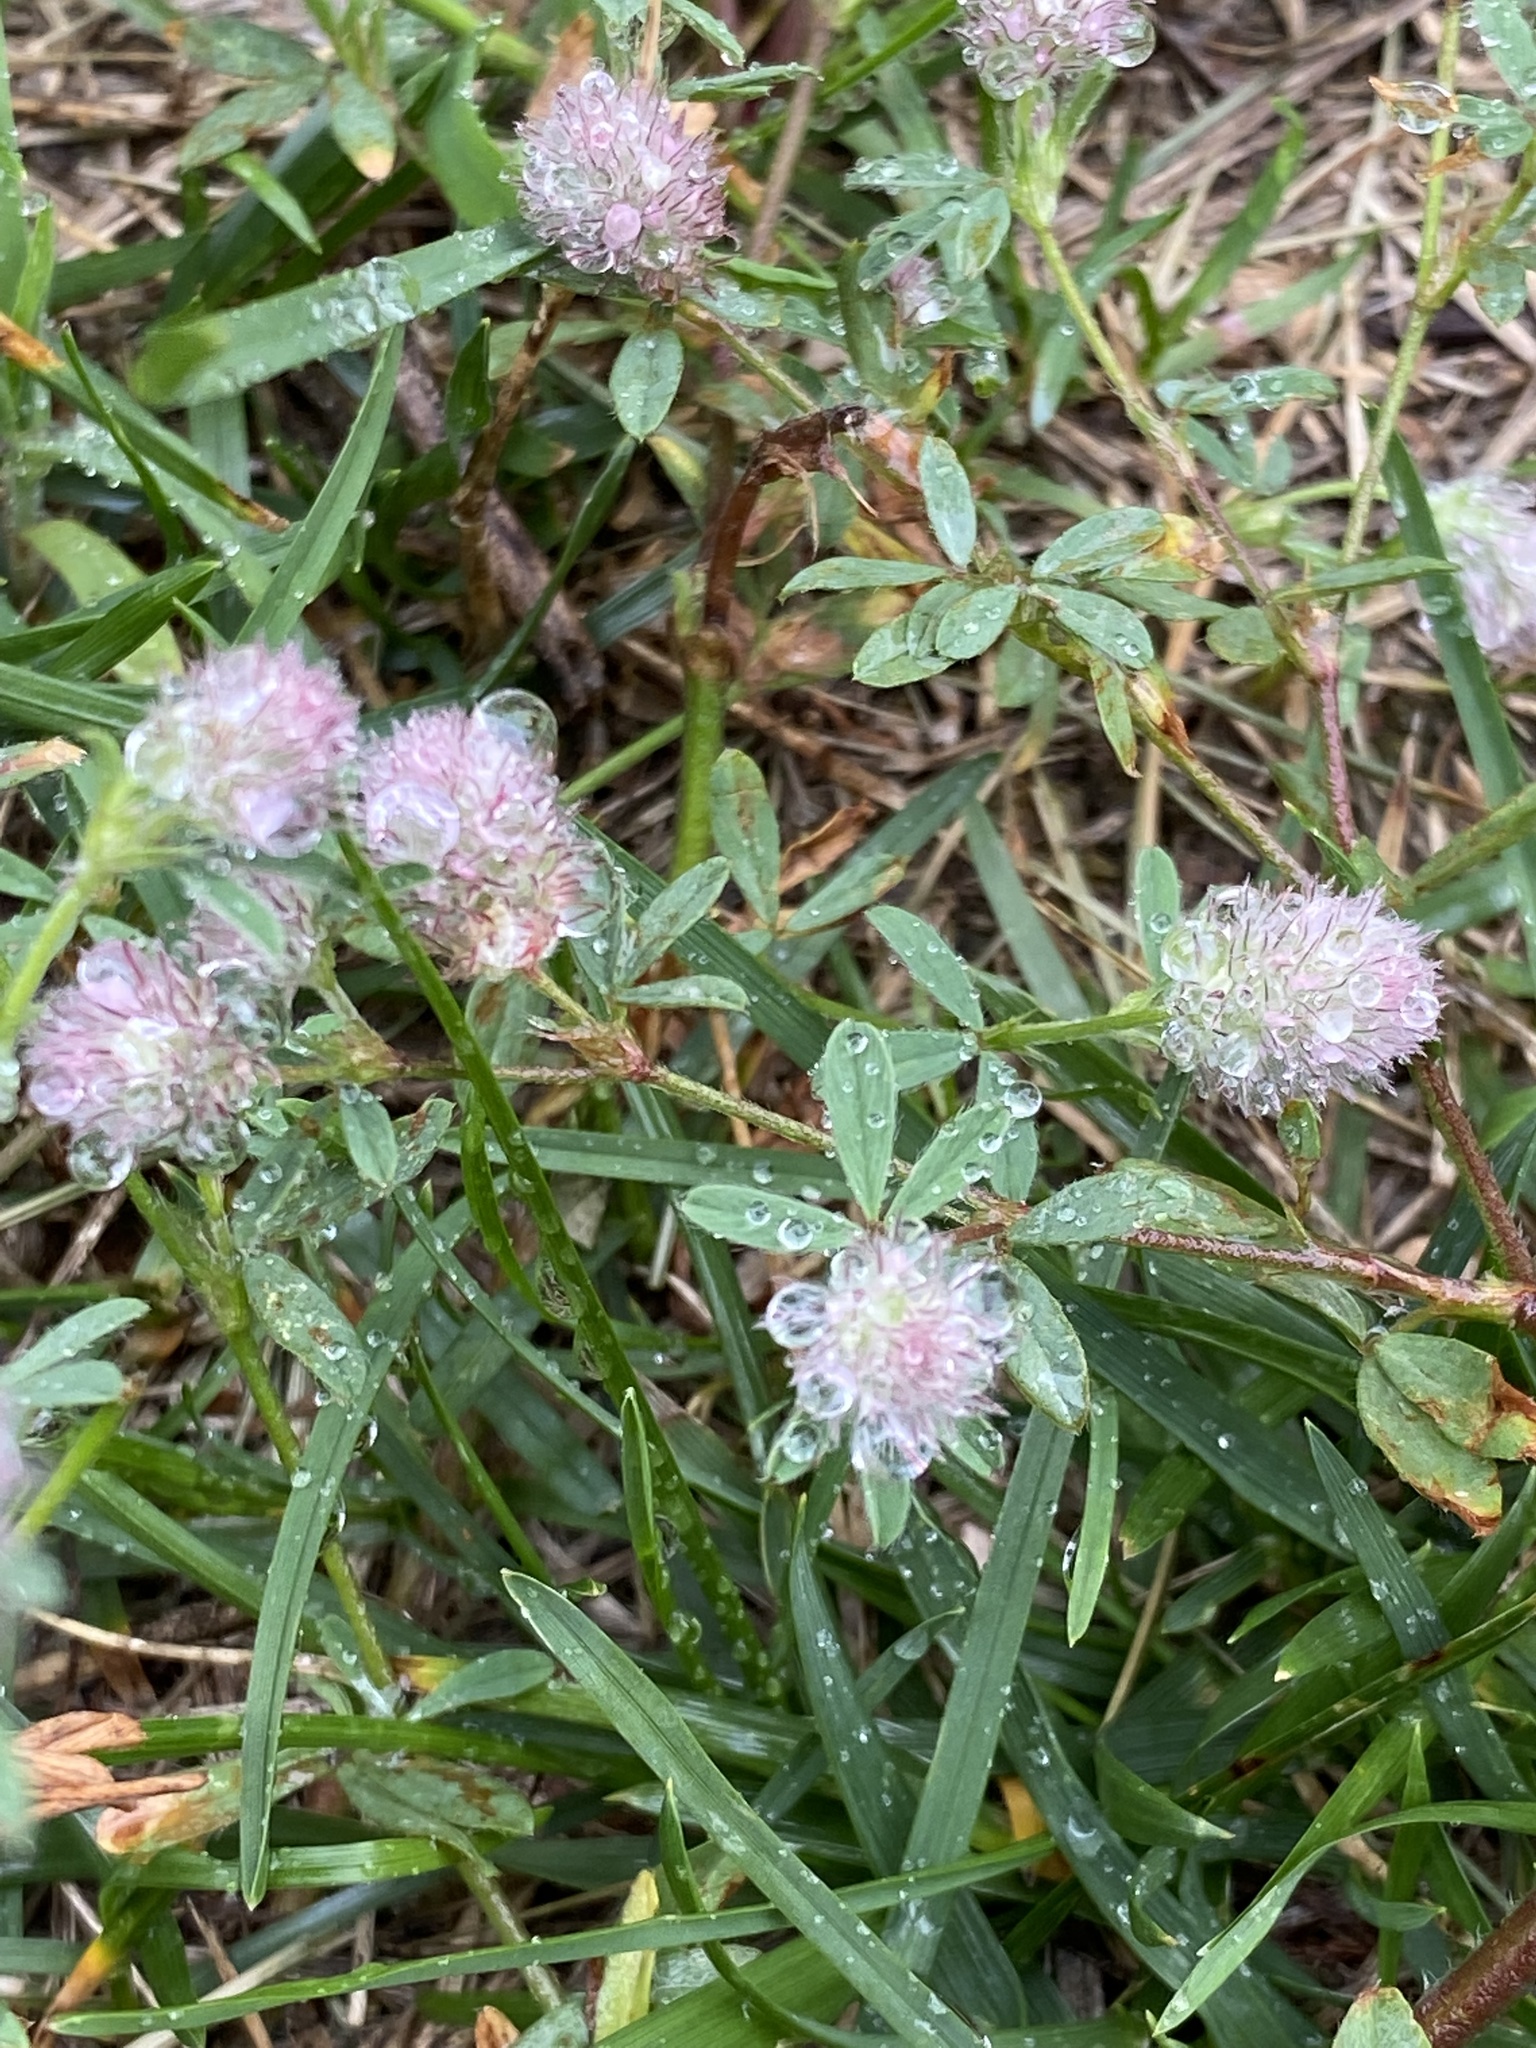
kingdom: Plantae
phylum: Tracheophyta
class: Magnoliopsida
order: Fabales
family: Fabaceae
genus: Trifolium
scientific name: Trifolium arvense
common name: Hare's-foot clover
